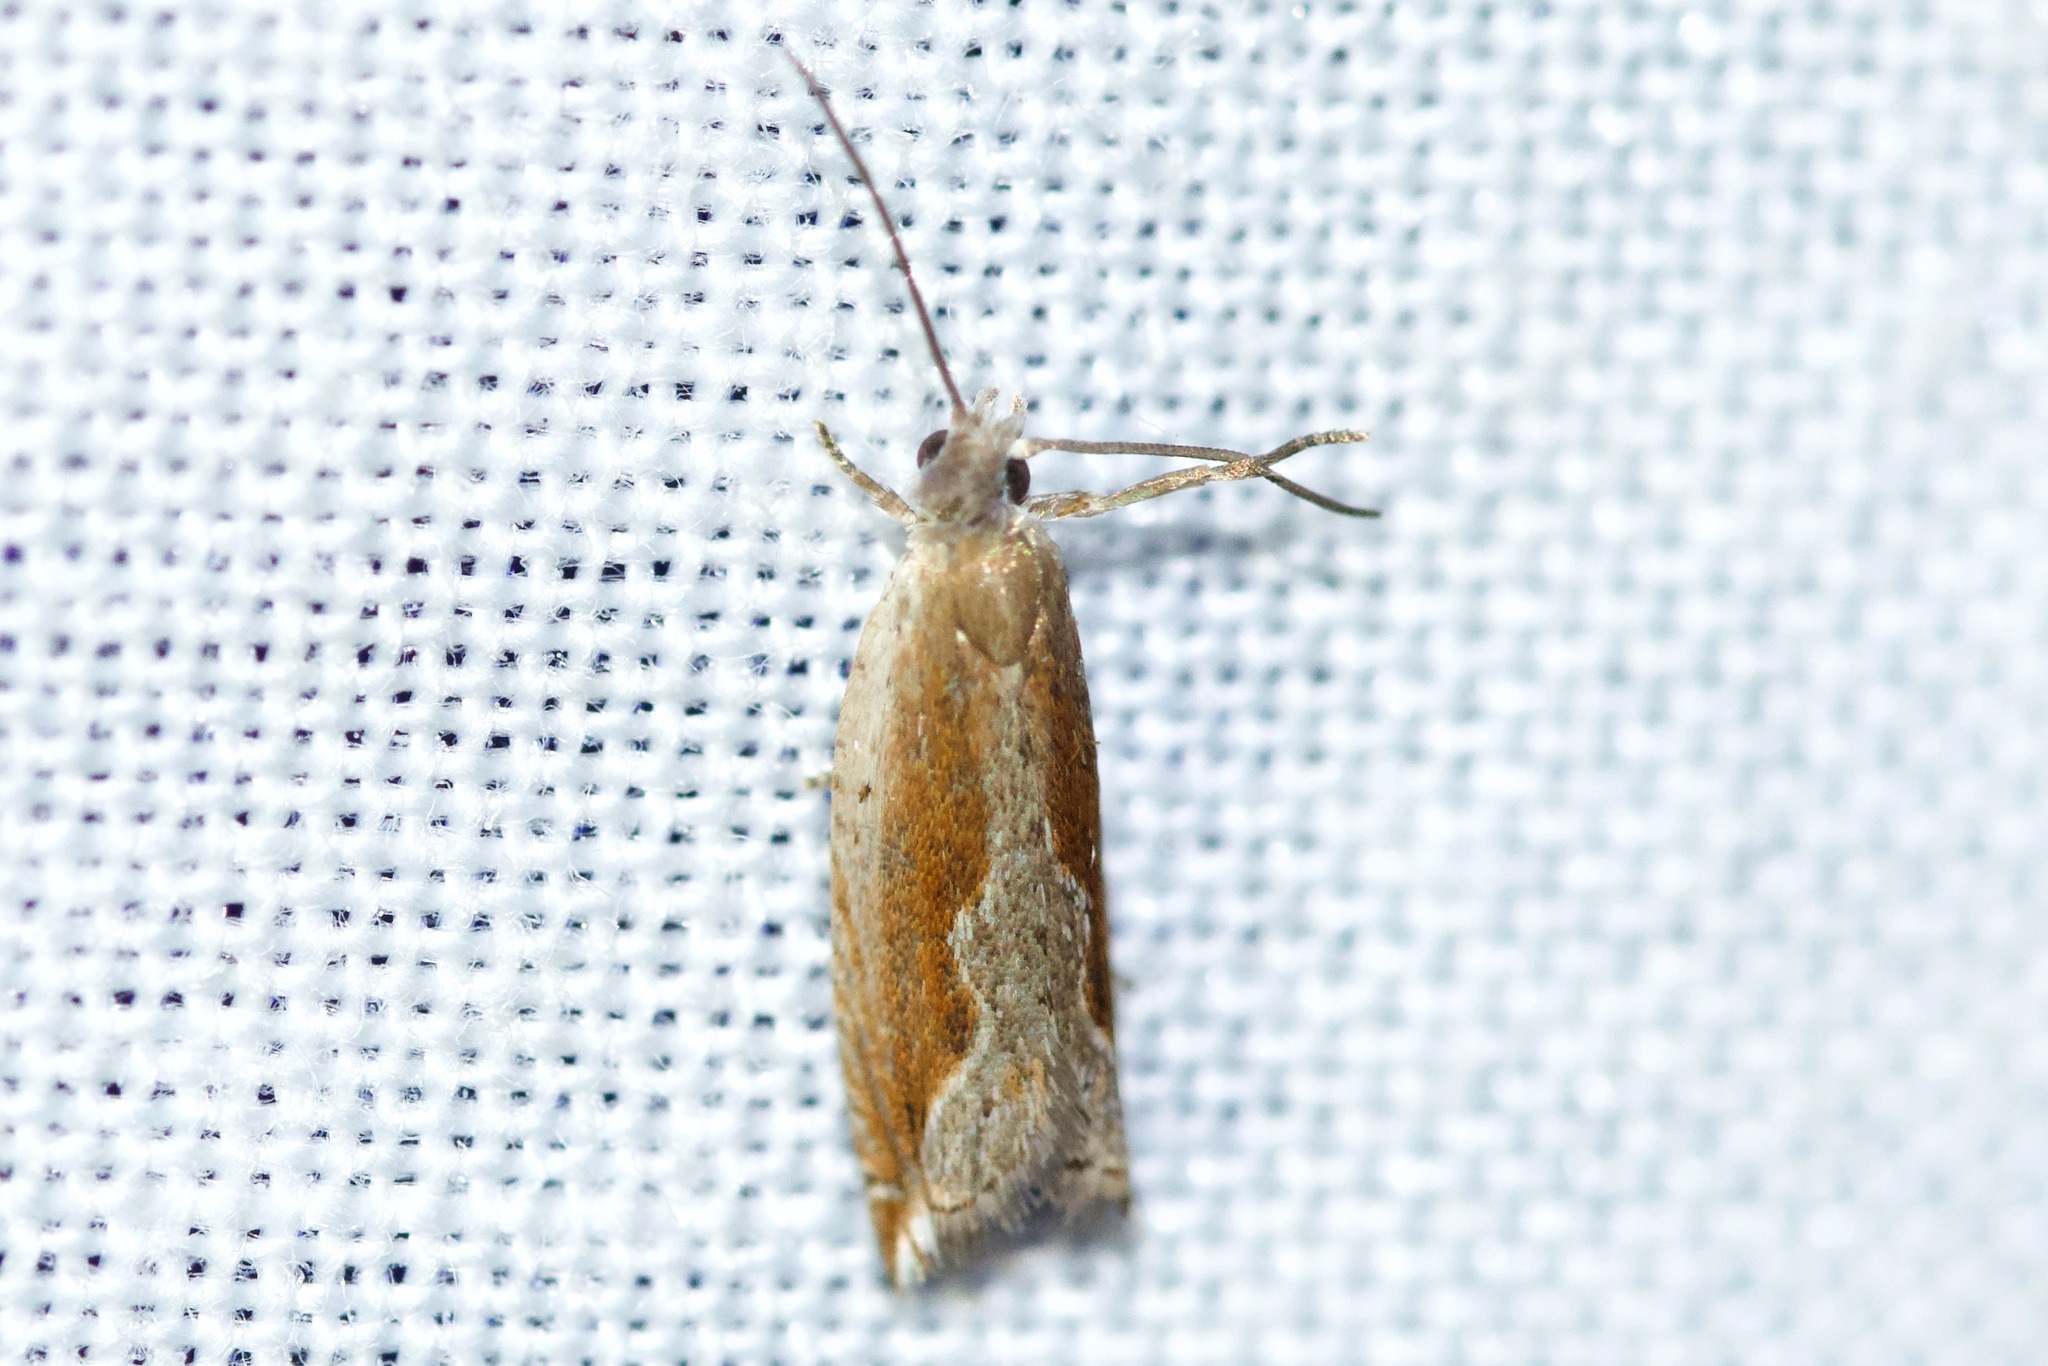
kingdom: Animalia
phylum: Arthropoda
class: Insecta
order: Lepidoptera
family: Tortricidae
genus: Ancylis
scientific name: Ancylis diminuatana
